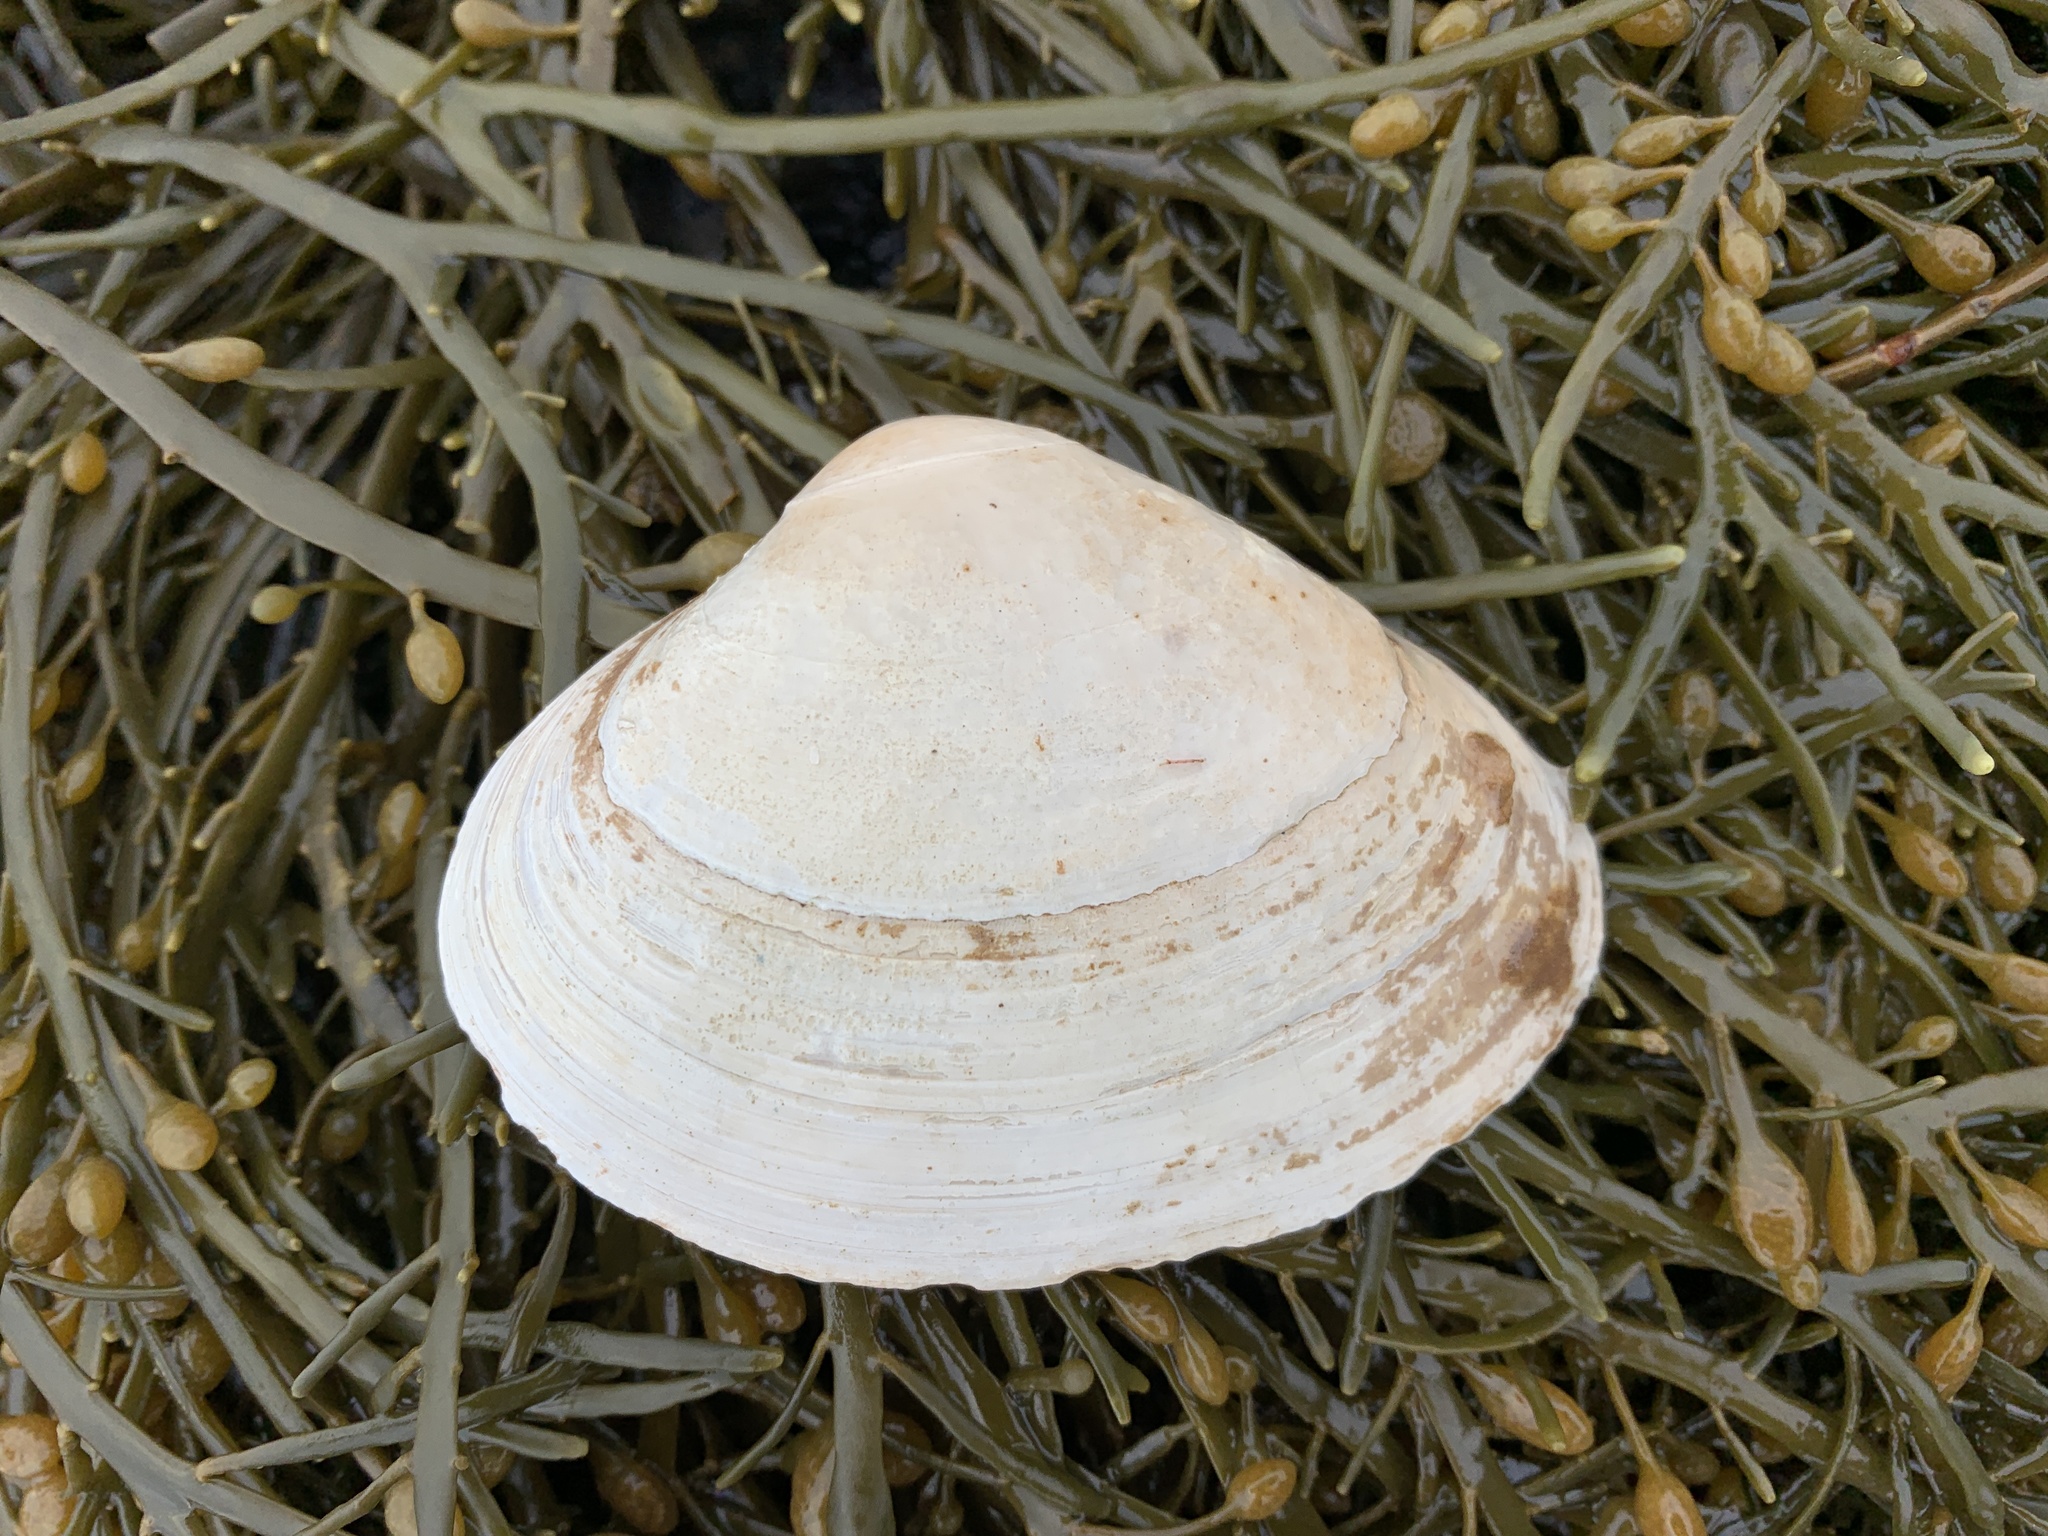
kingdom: Animalia
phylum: Mollusca
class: Bivalvia
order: Venerida
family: Mactridae
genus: Spisula
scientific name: Spisula solidissima
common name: Atlantic surf clam
